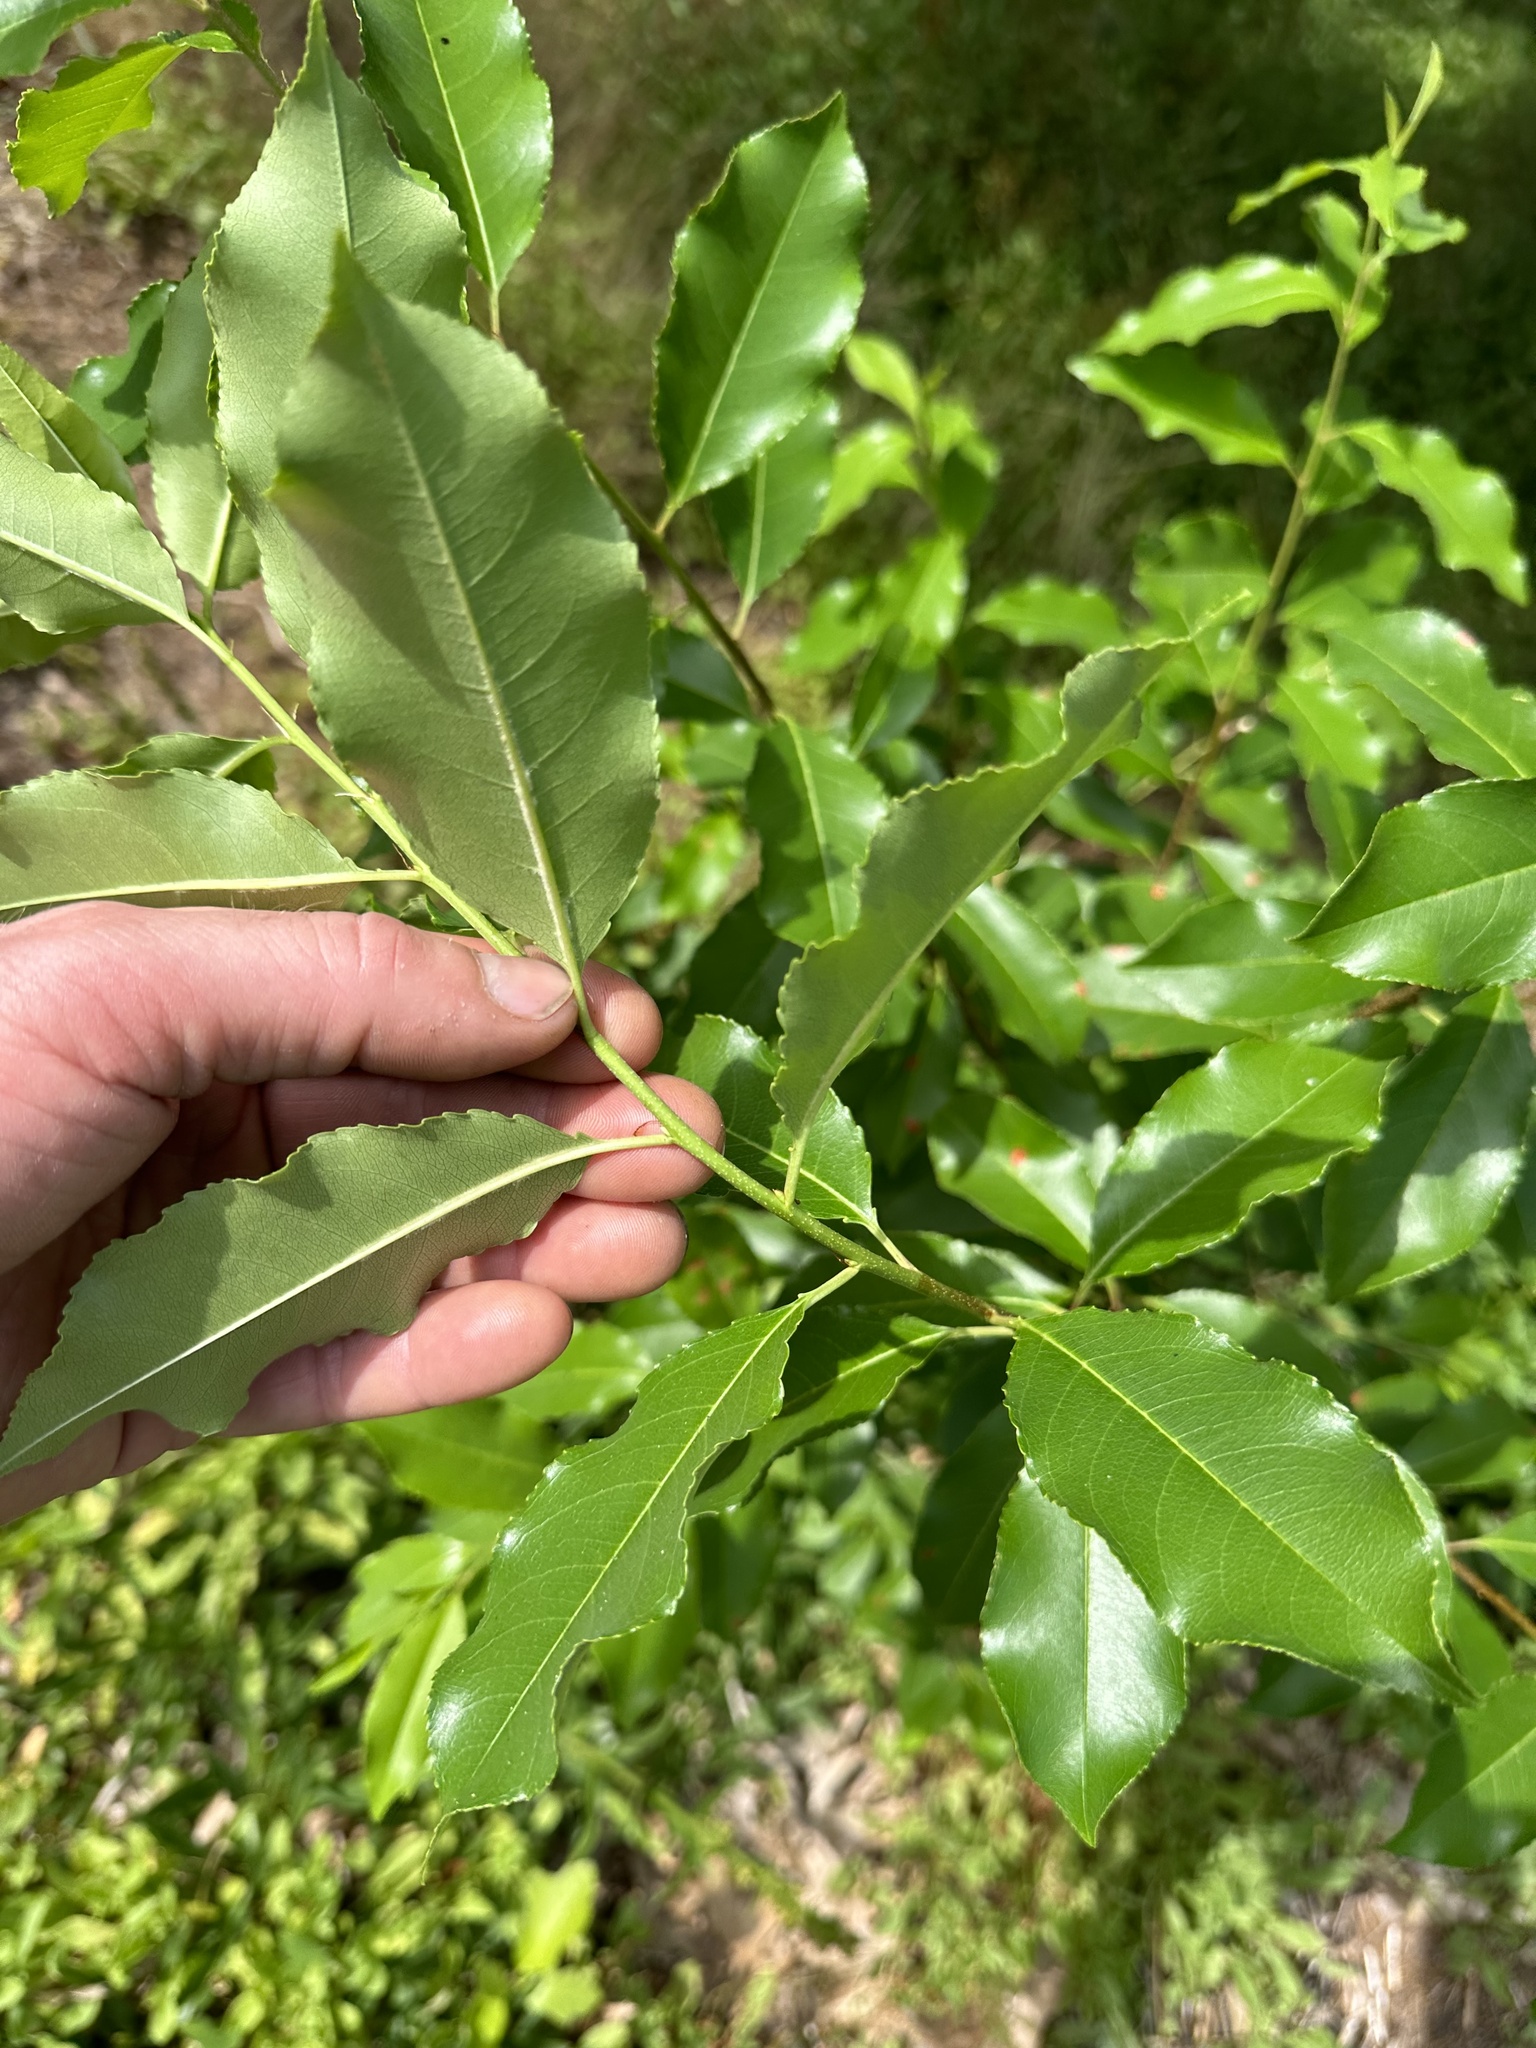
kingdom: Plantae
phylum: Tracheophyta
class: Magnoliopsida
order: Rosales
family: Rosaceae
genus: Prunus
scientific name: Prunus serotina
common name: Black cherry
